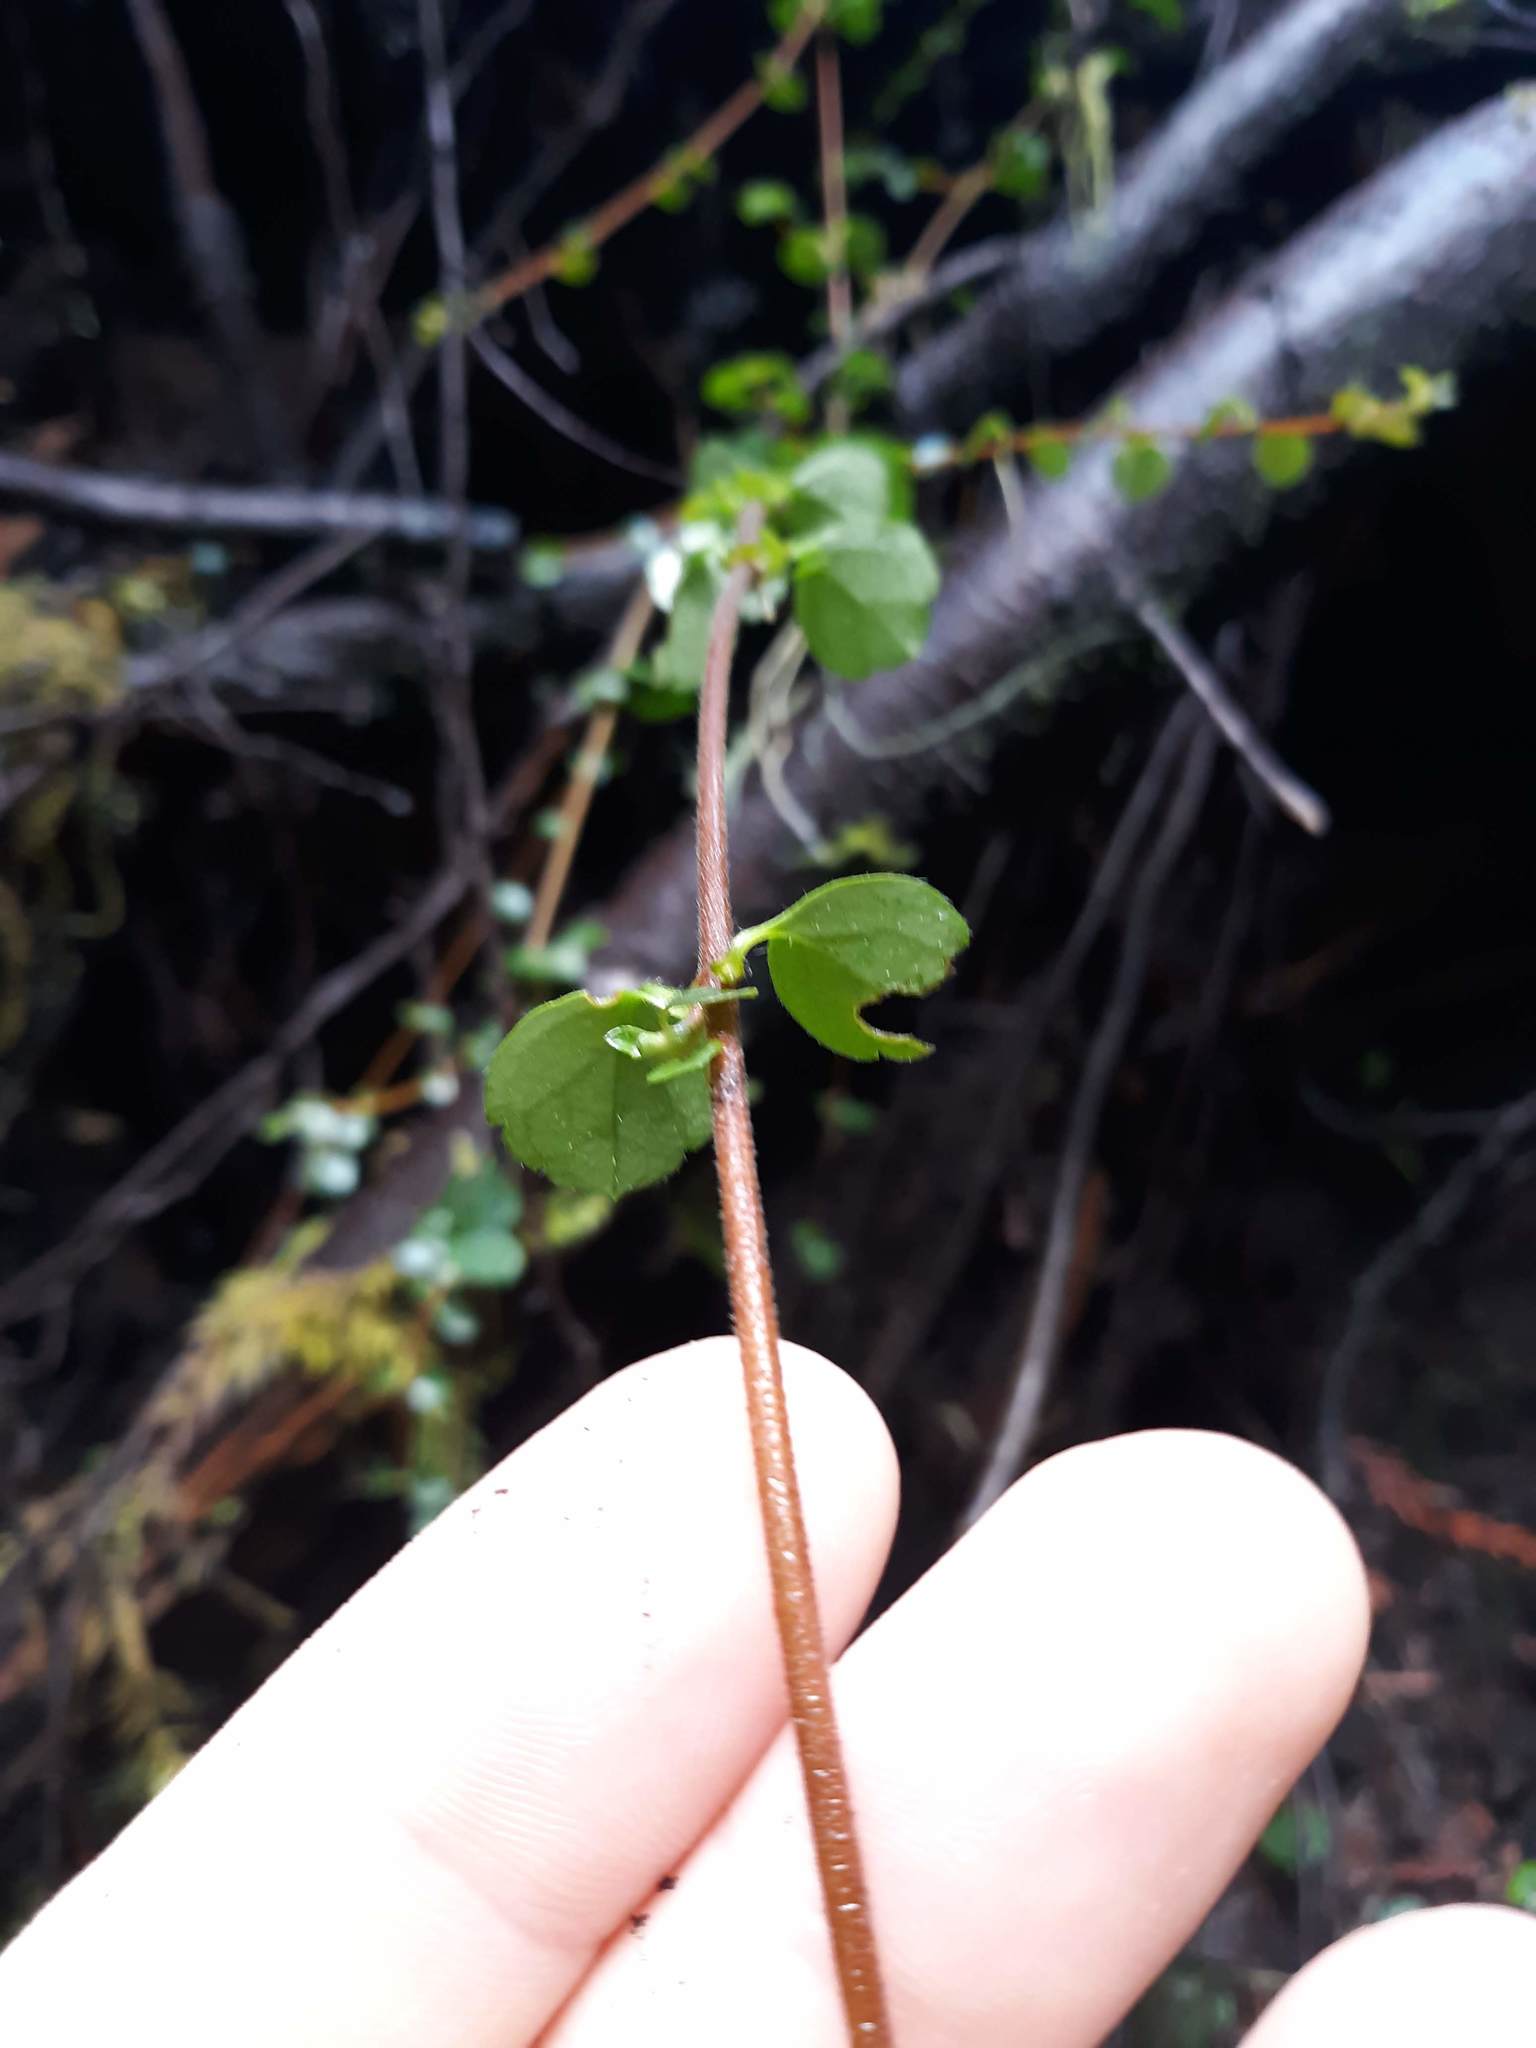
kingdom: Plantae
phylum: Tracheophyta
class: Magnoliopsida
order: Dipsacales
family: Caprifoliaceae
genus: Linnaea
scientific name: Linnaea borealis
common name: Twinflower
